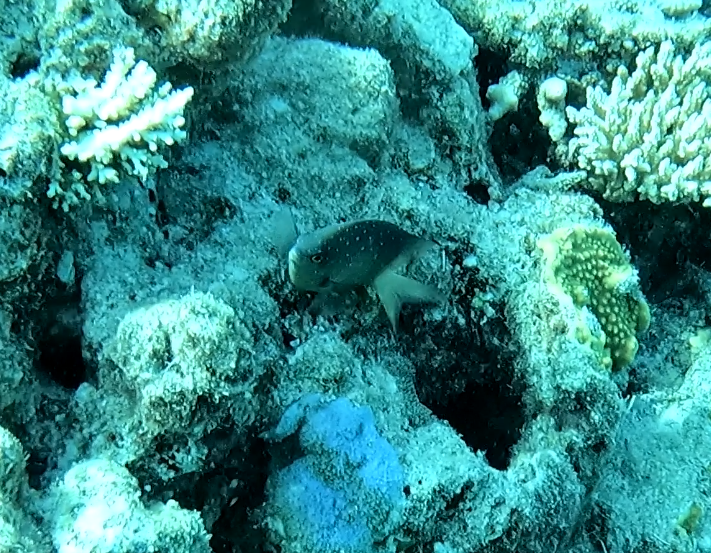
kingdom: Animalia
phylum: Chordata
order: Perciformes
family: Pomacentridae
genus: Plectroglyphidodon
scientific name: Plectroglyphidodon lacrymatus
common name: Jewel damsel
